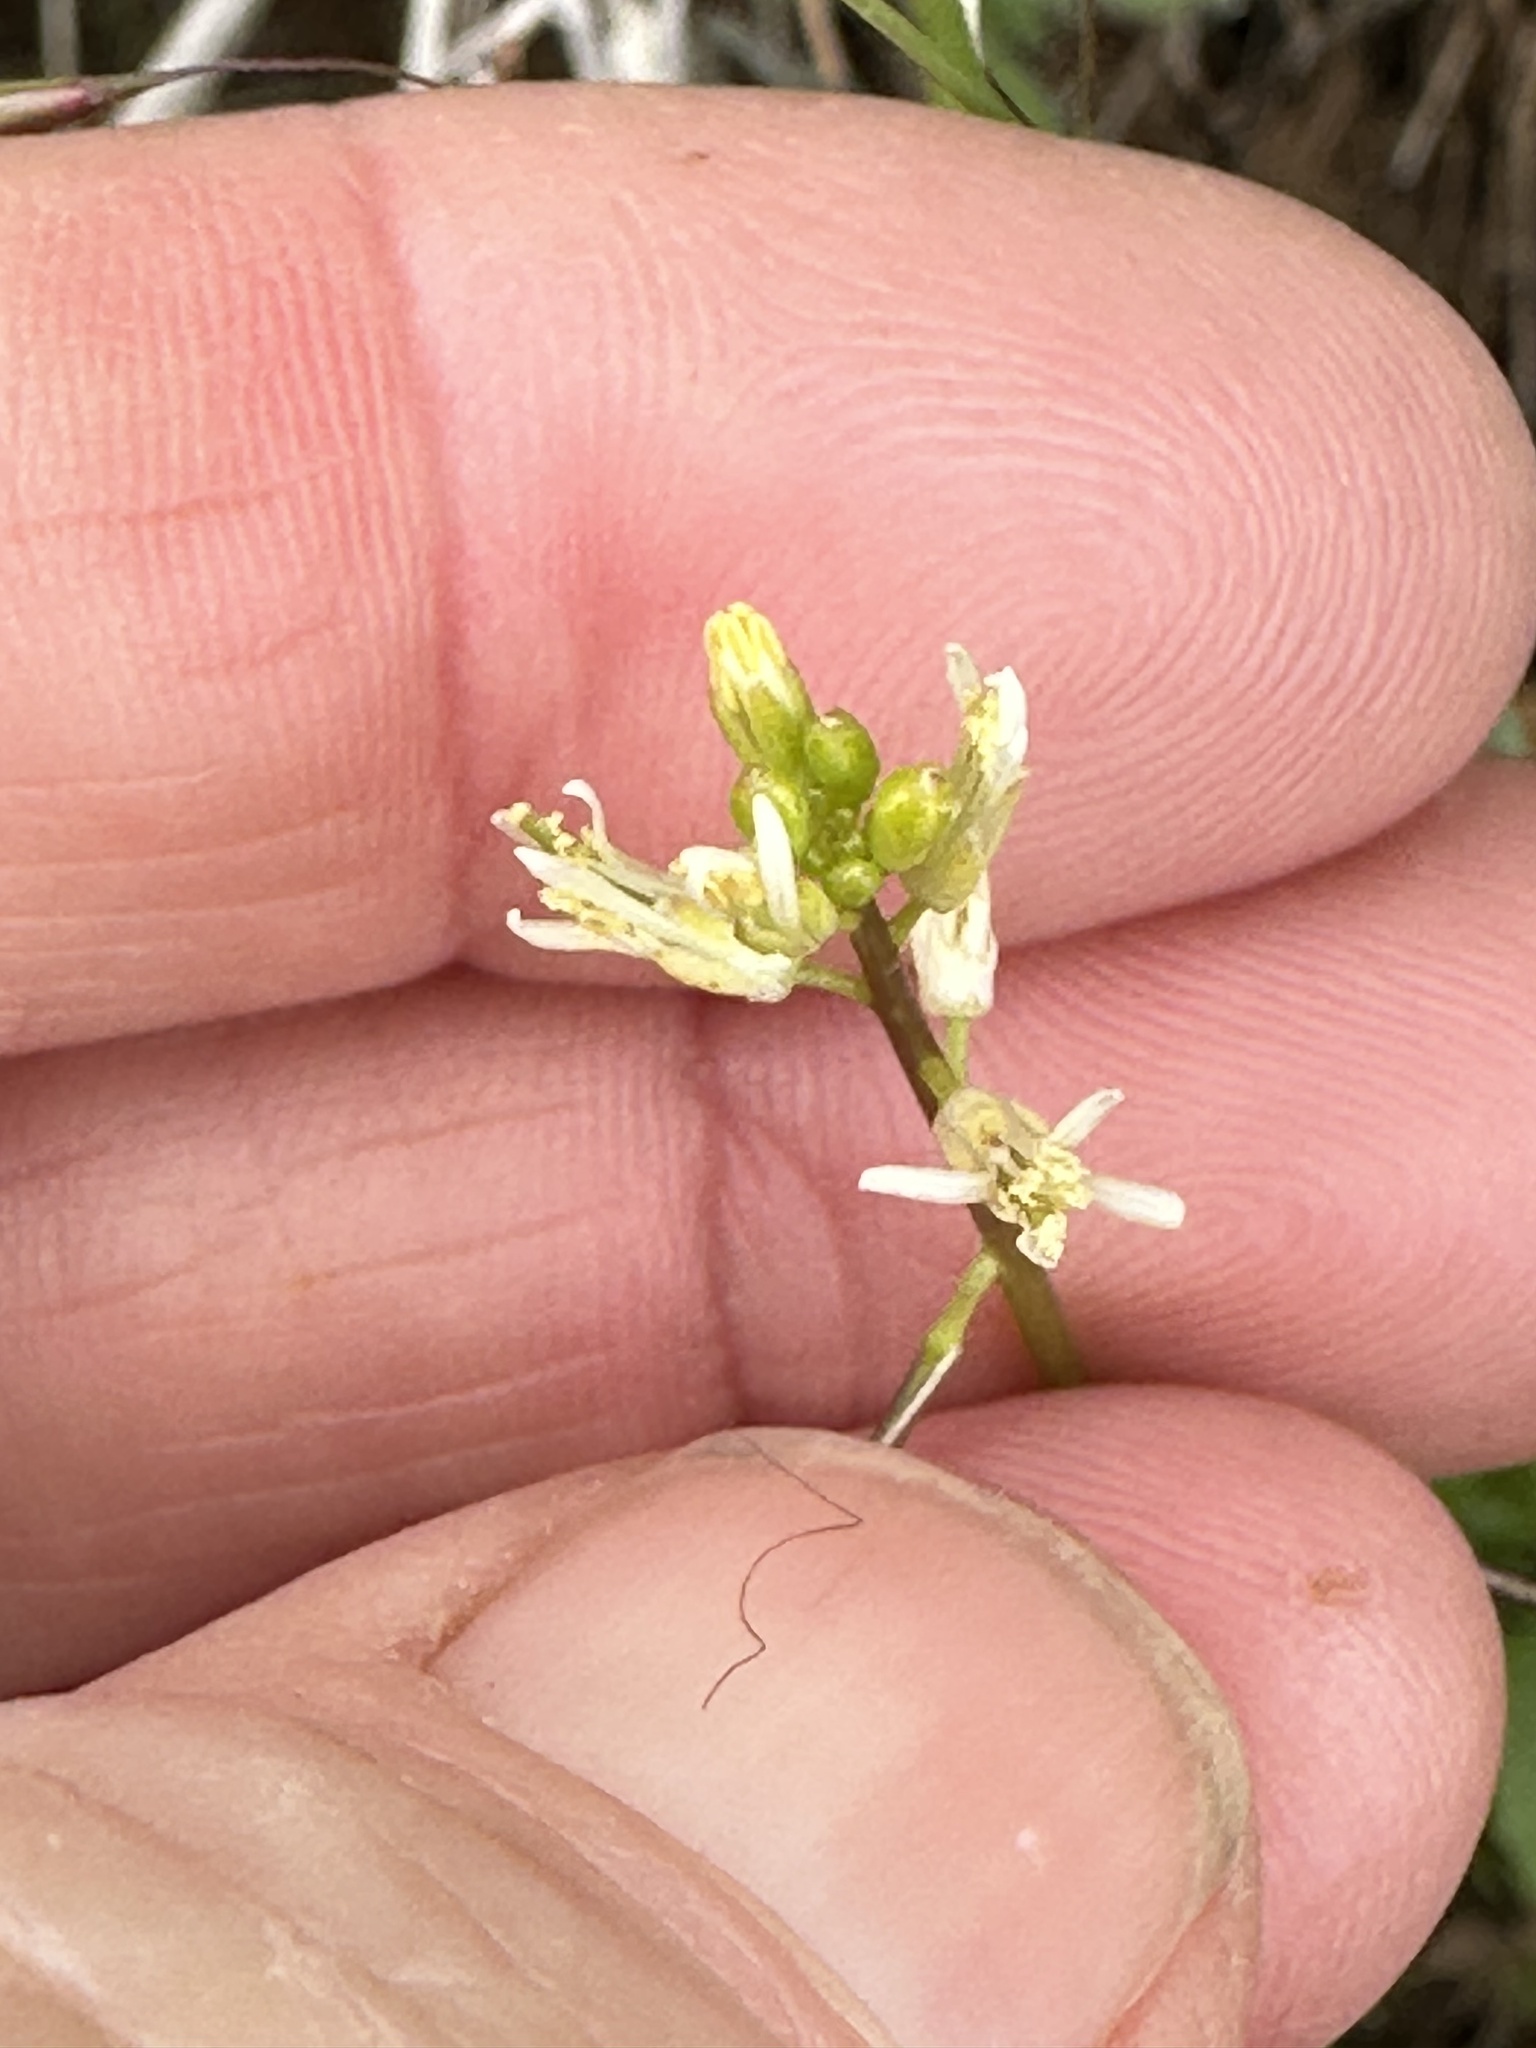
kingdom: Plantae
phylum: Tracheophyta
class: Magnoliopsida
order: Brassicales
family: Brassicaceae
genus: Streptanthus
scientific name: Streptanthus lasiophyllus
